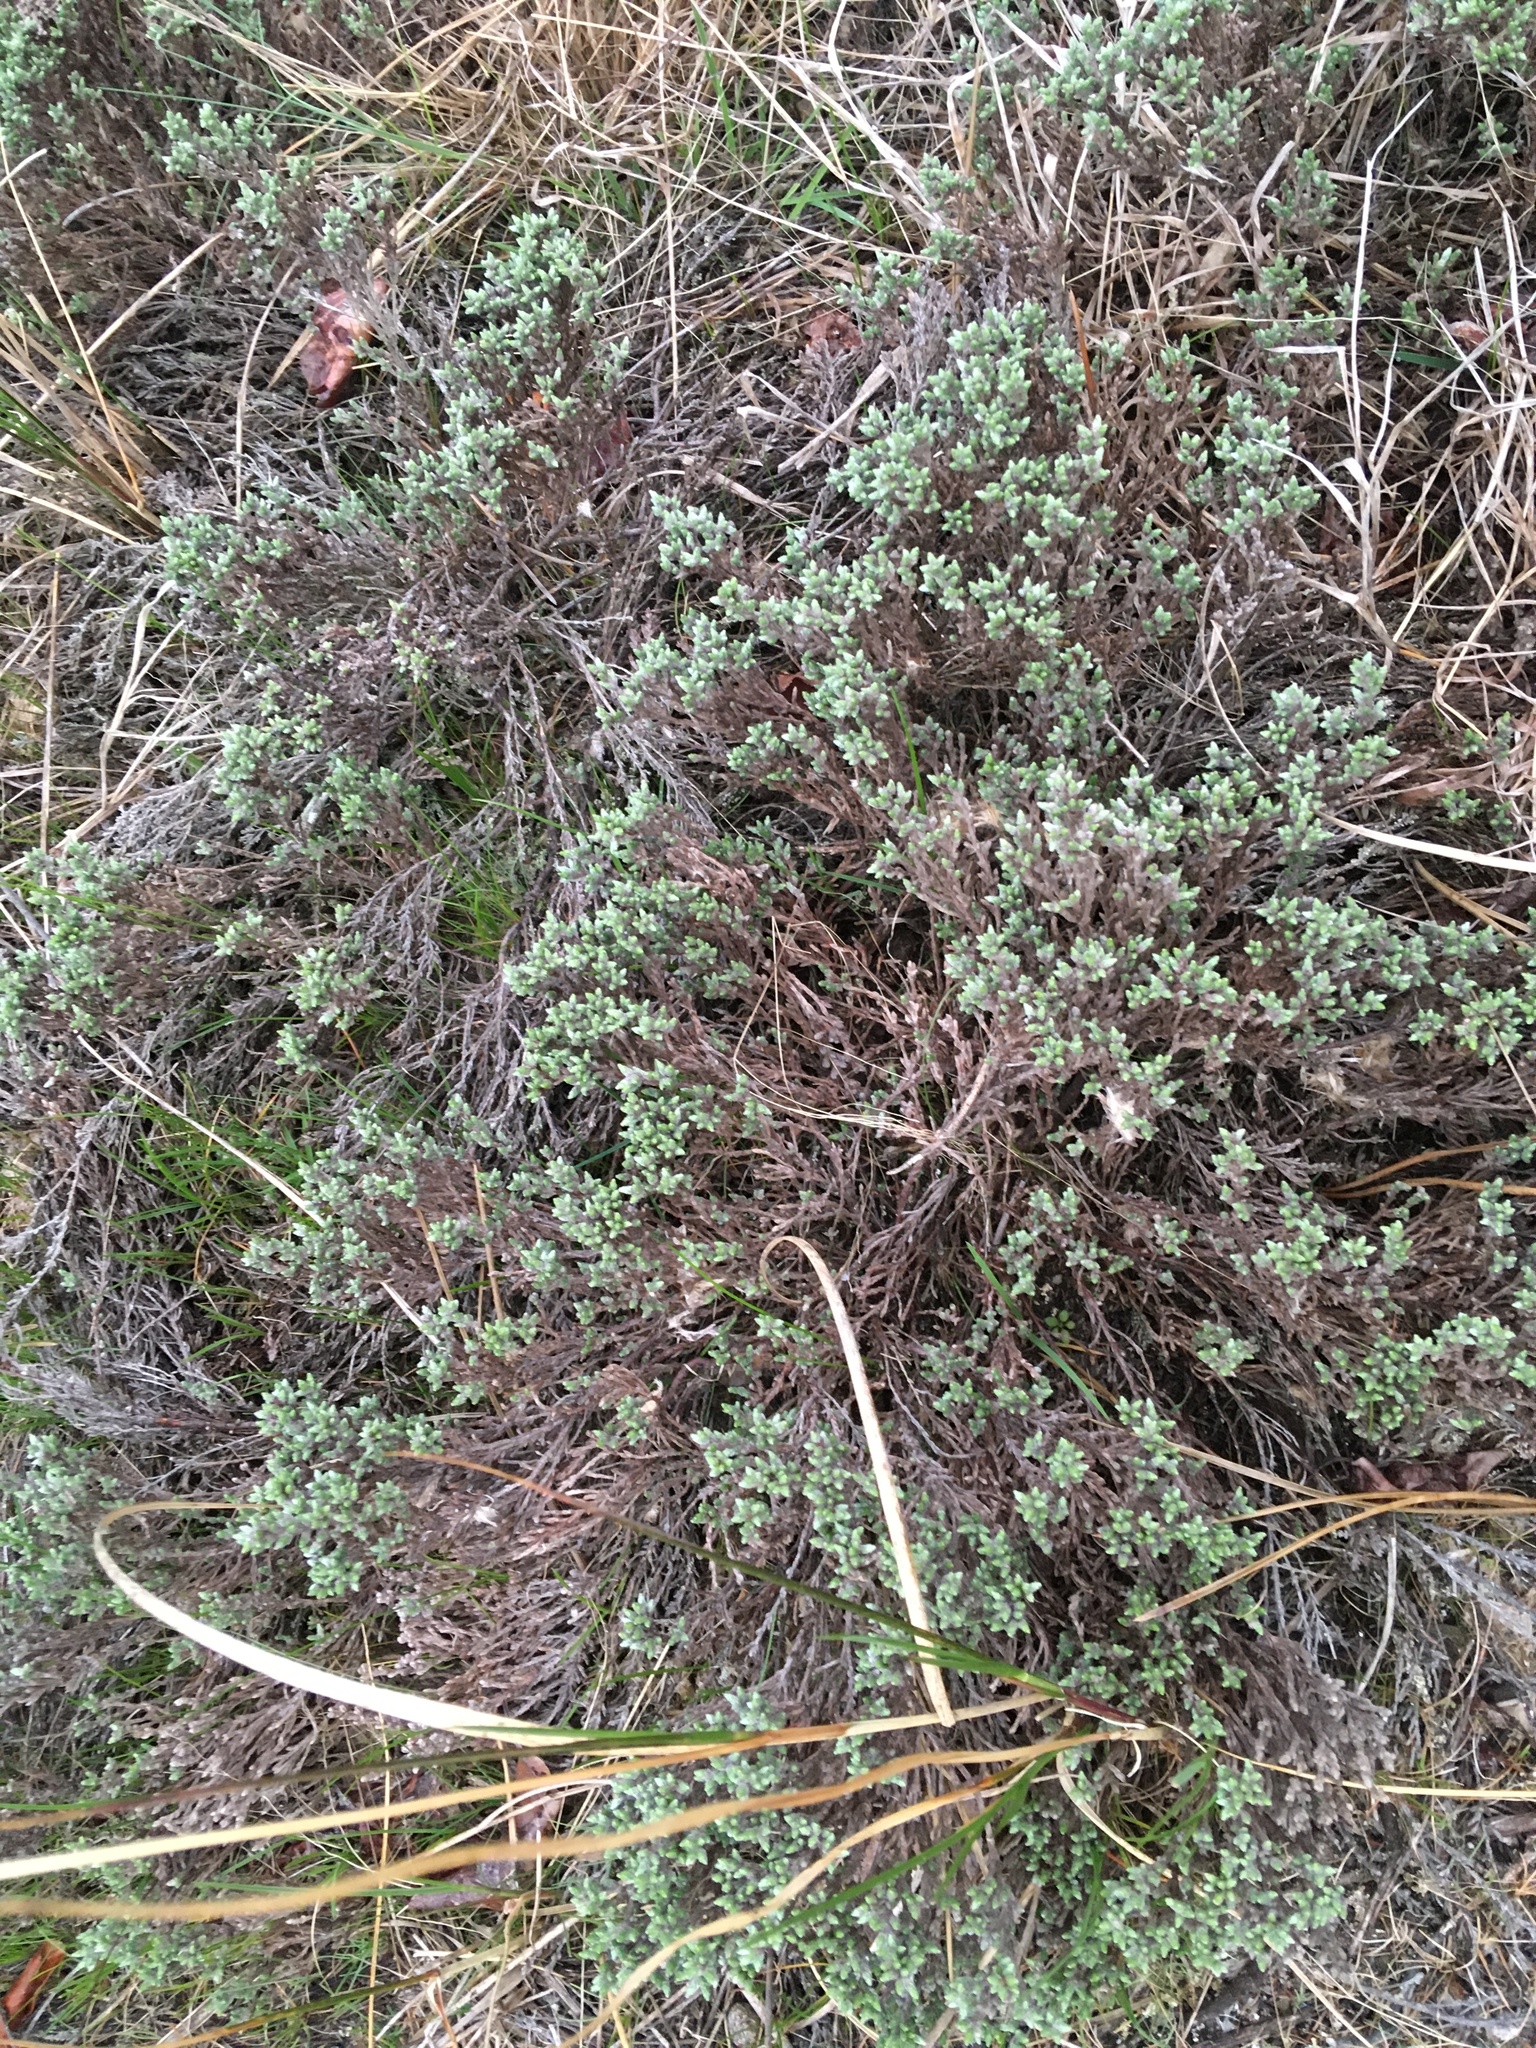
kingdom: Plantae
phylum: Tracheophyta
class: Magnoliopsida
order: Malvales
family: Cistaceae
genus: Hudsonia
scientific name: Hudsonia tomentosa
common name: Beach-heath
